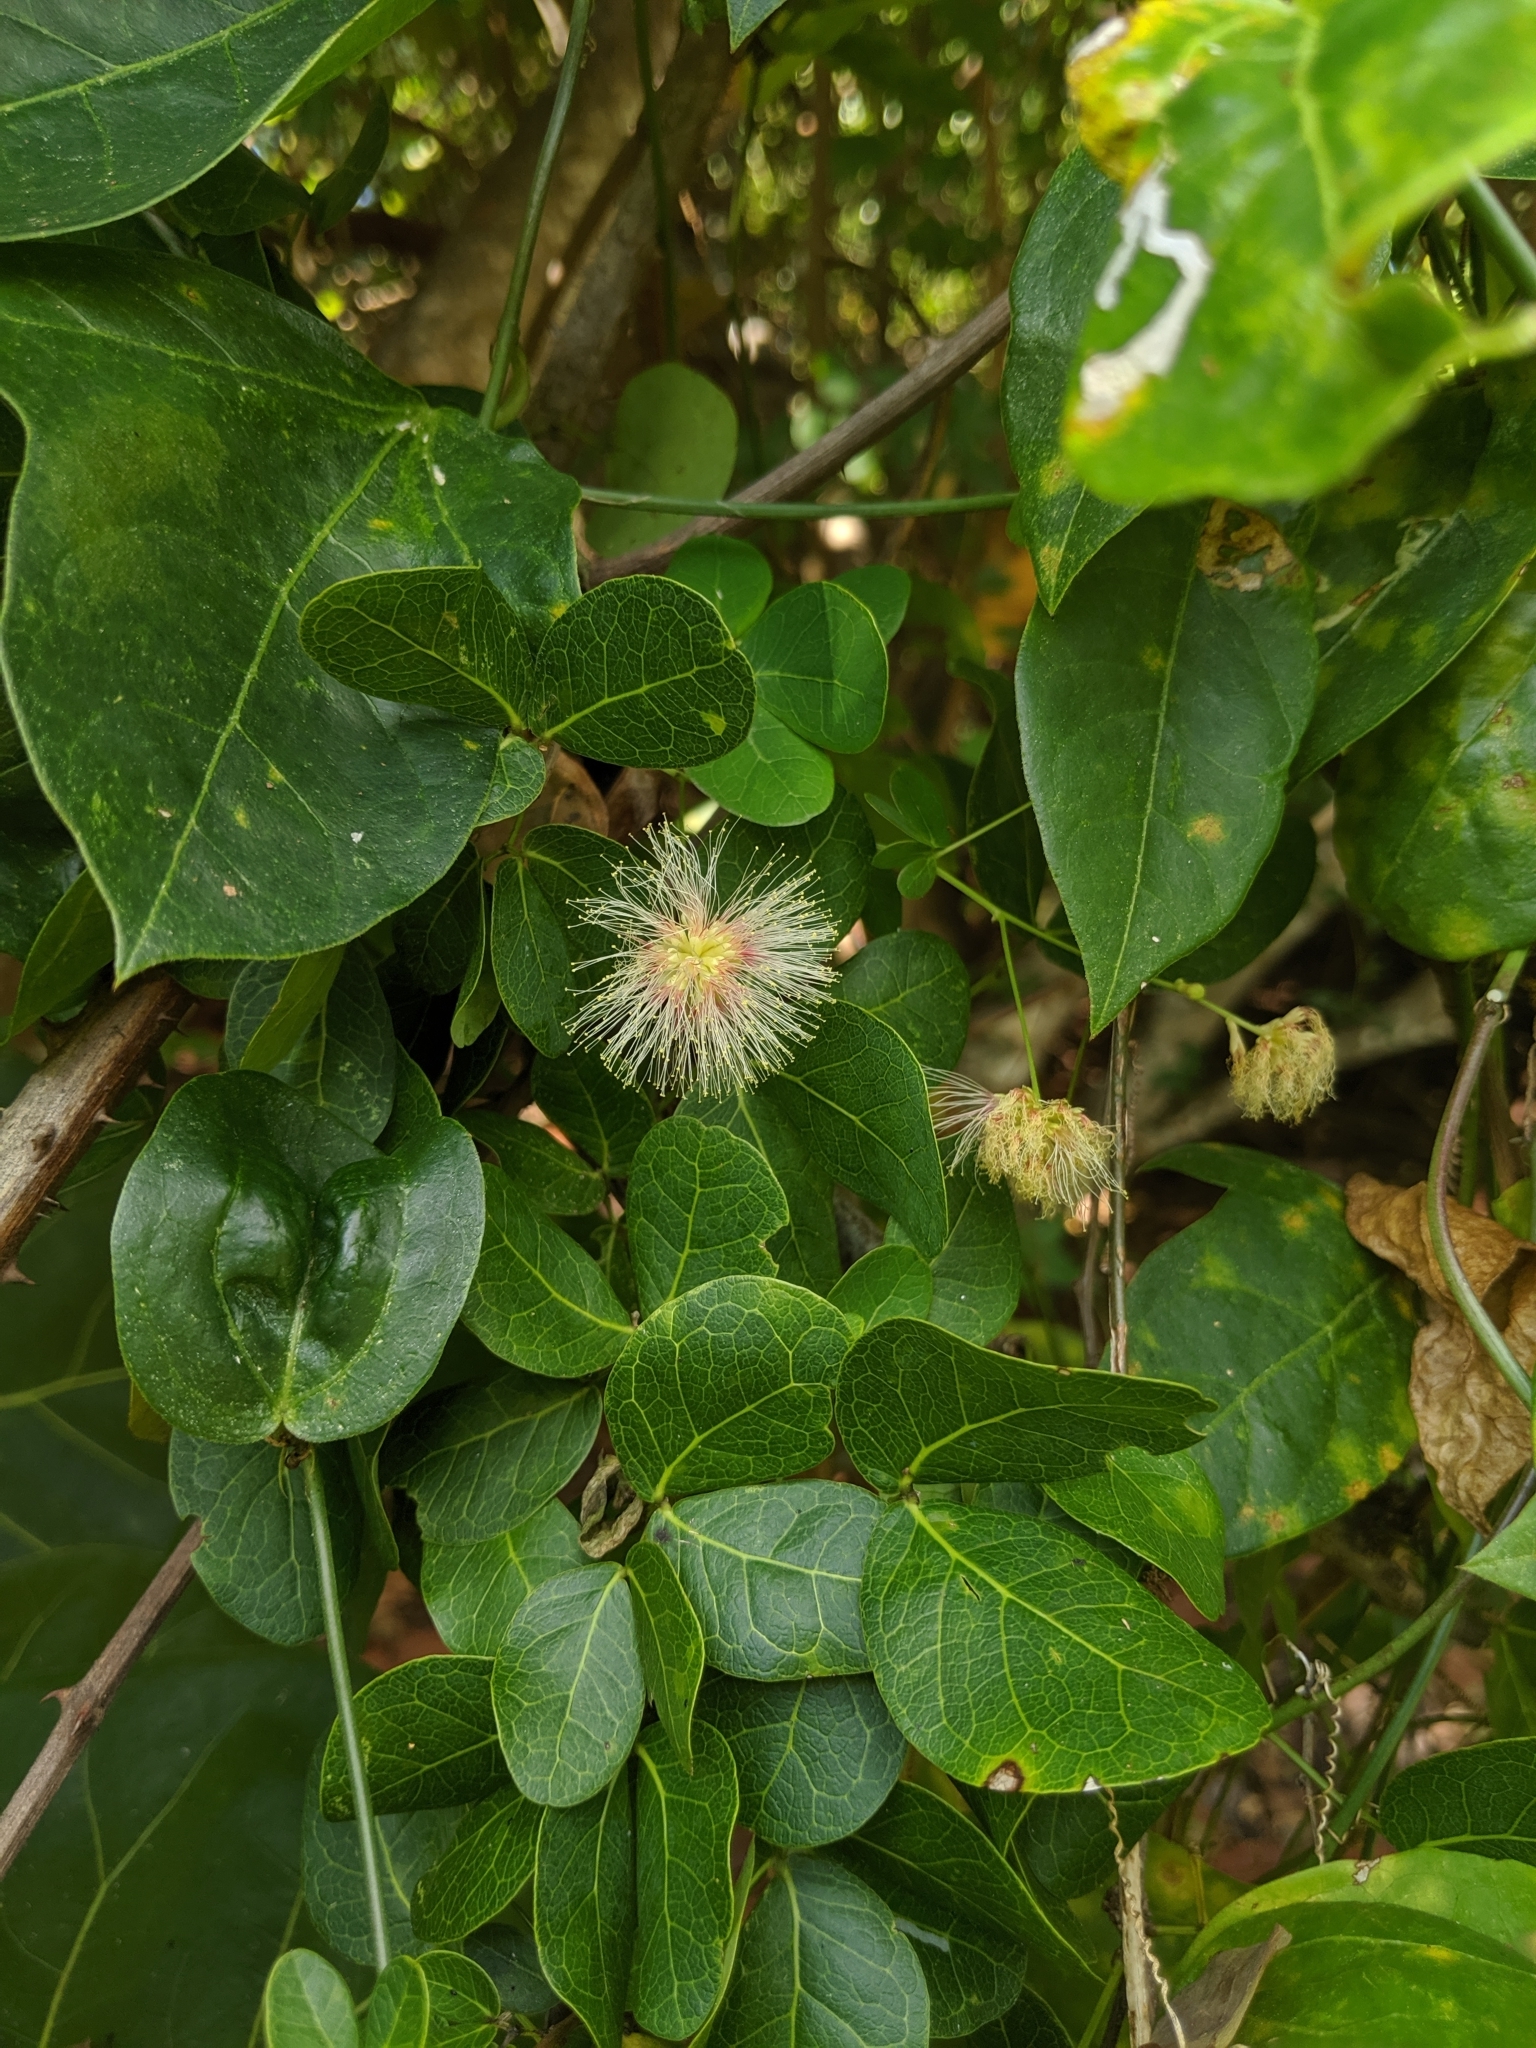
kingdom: Plantae
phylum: Tracheophyta
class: Magnoliopsida
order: Fabales
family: Fabaceae
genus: Pithecellobium
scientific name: Pithecellobium unguis-cati
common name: Cat's-claw
